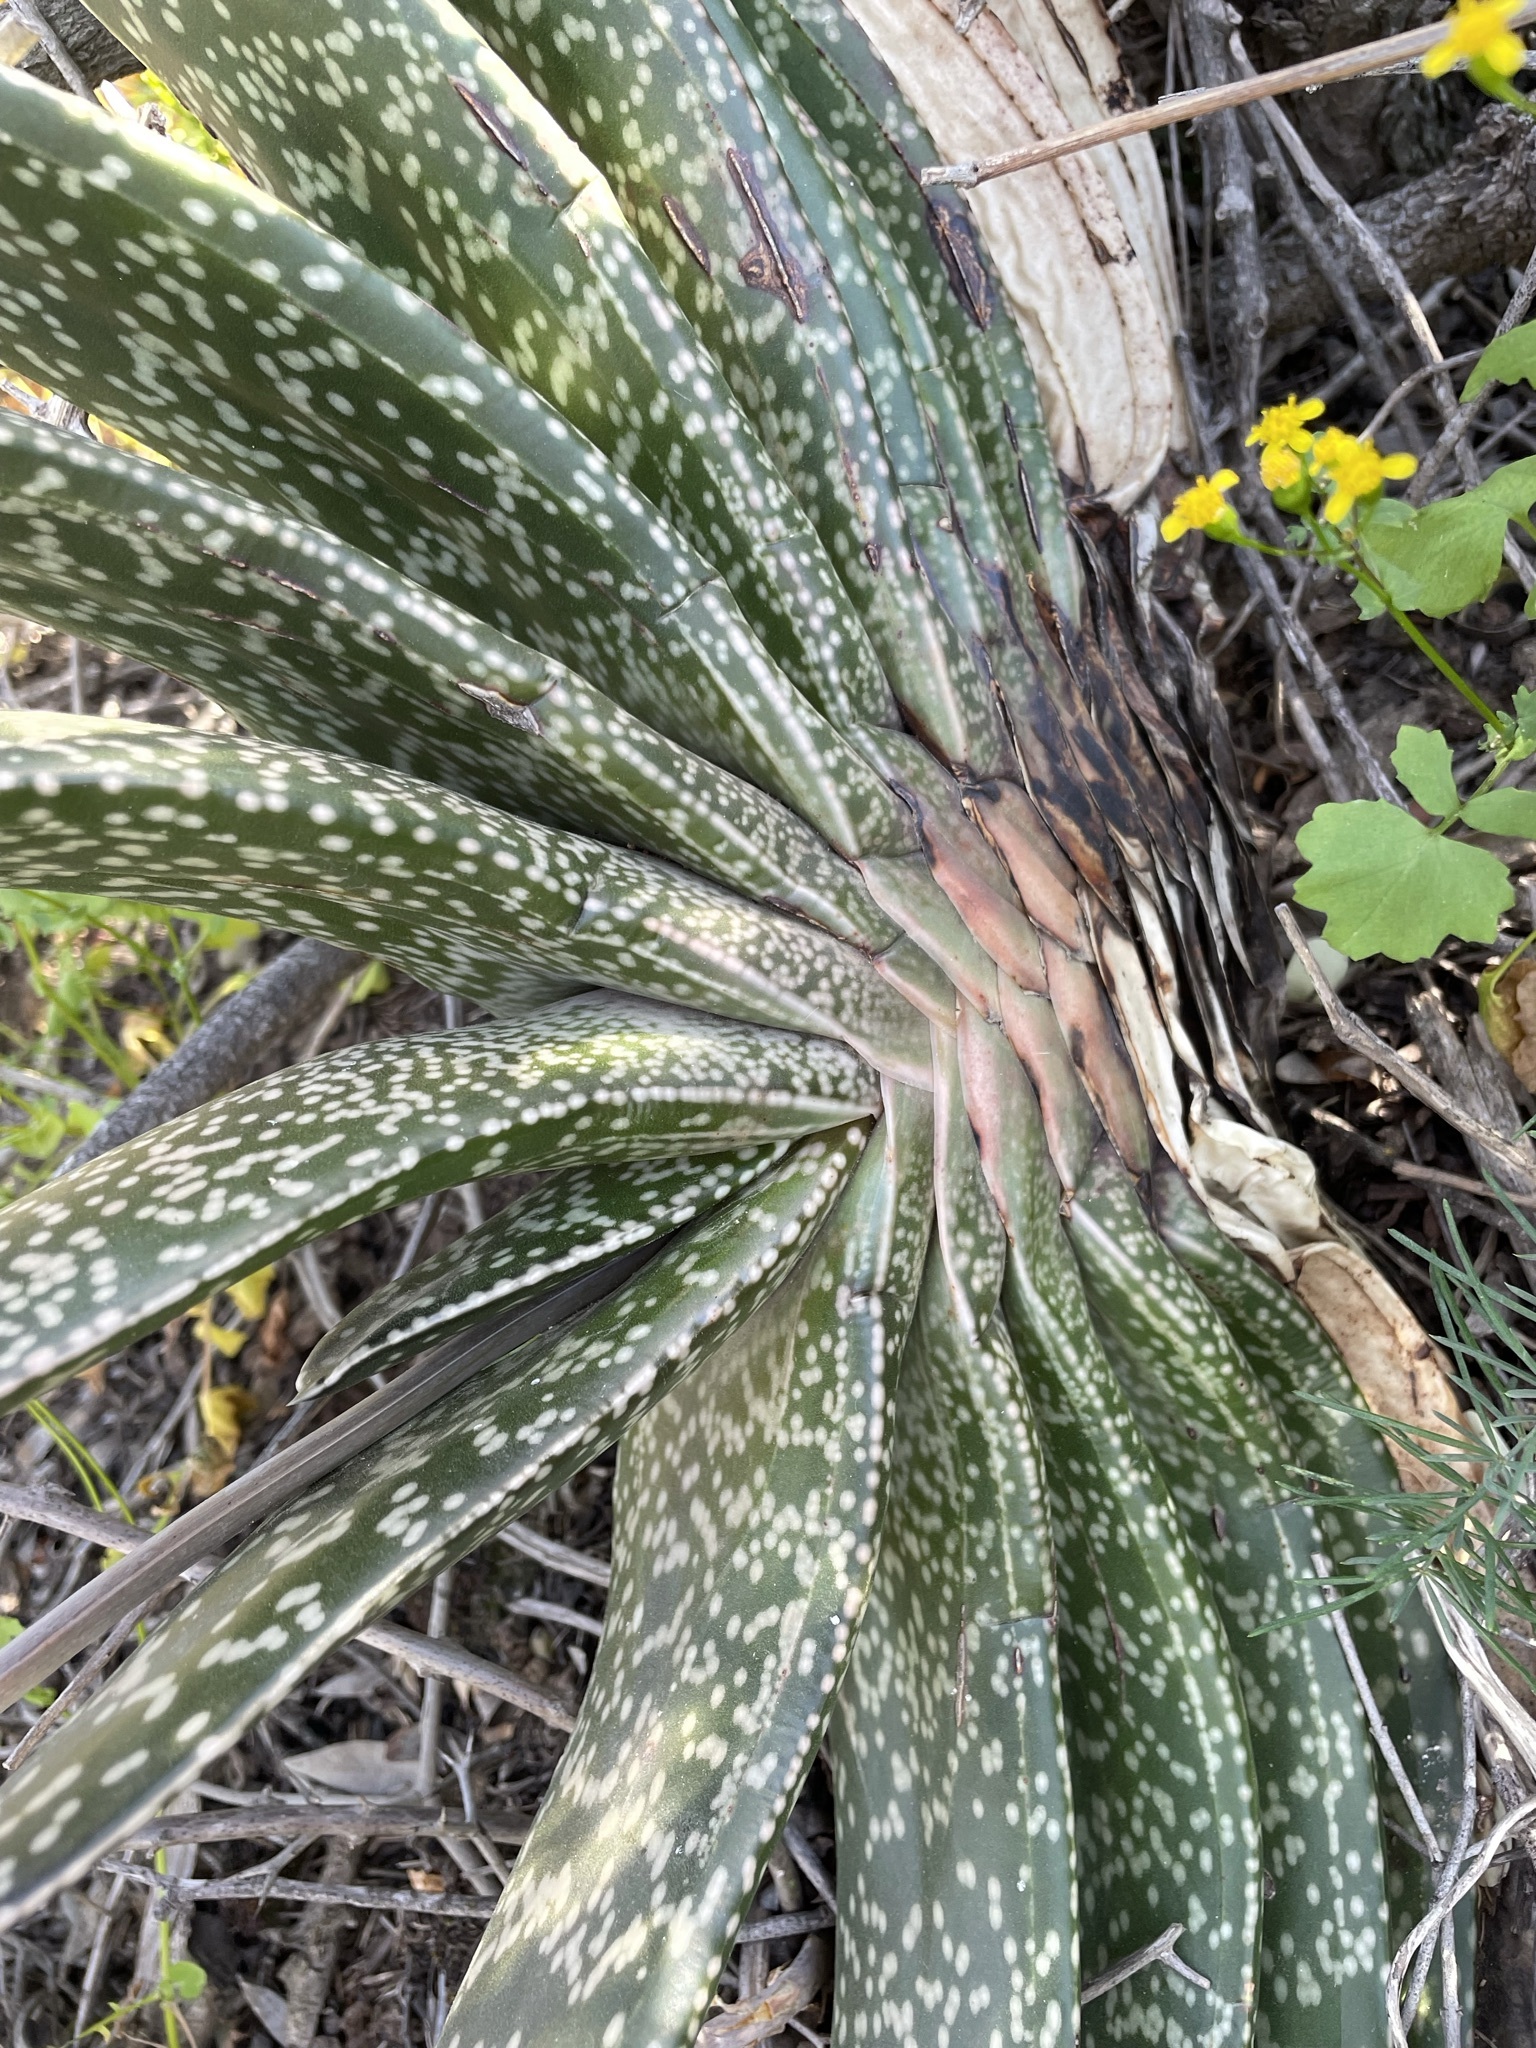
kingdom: Plantae
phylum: Tracheophyta
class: Liliopsida
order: Asparagales
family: Asphodelaceae
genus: Gasteria
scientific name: Gasteria brachyphylla
